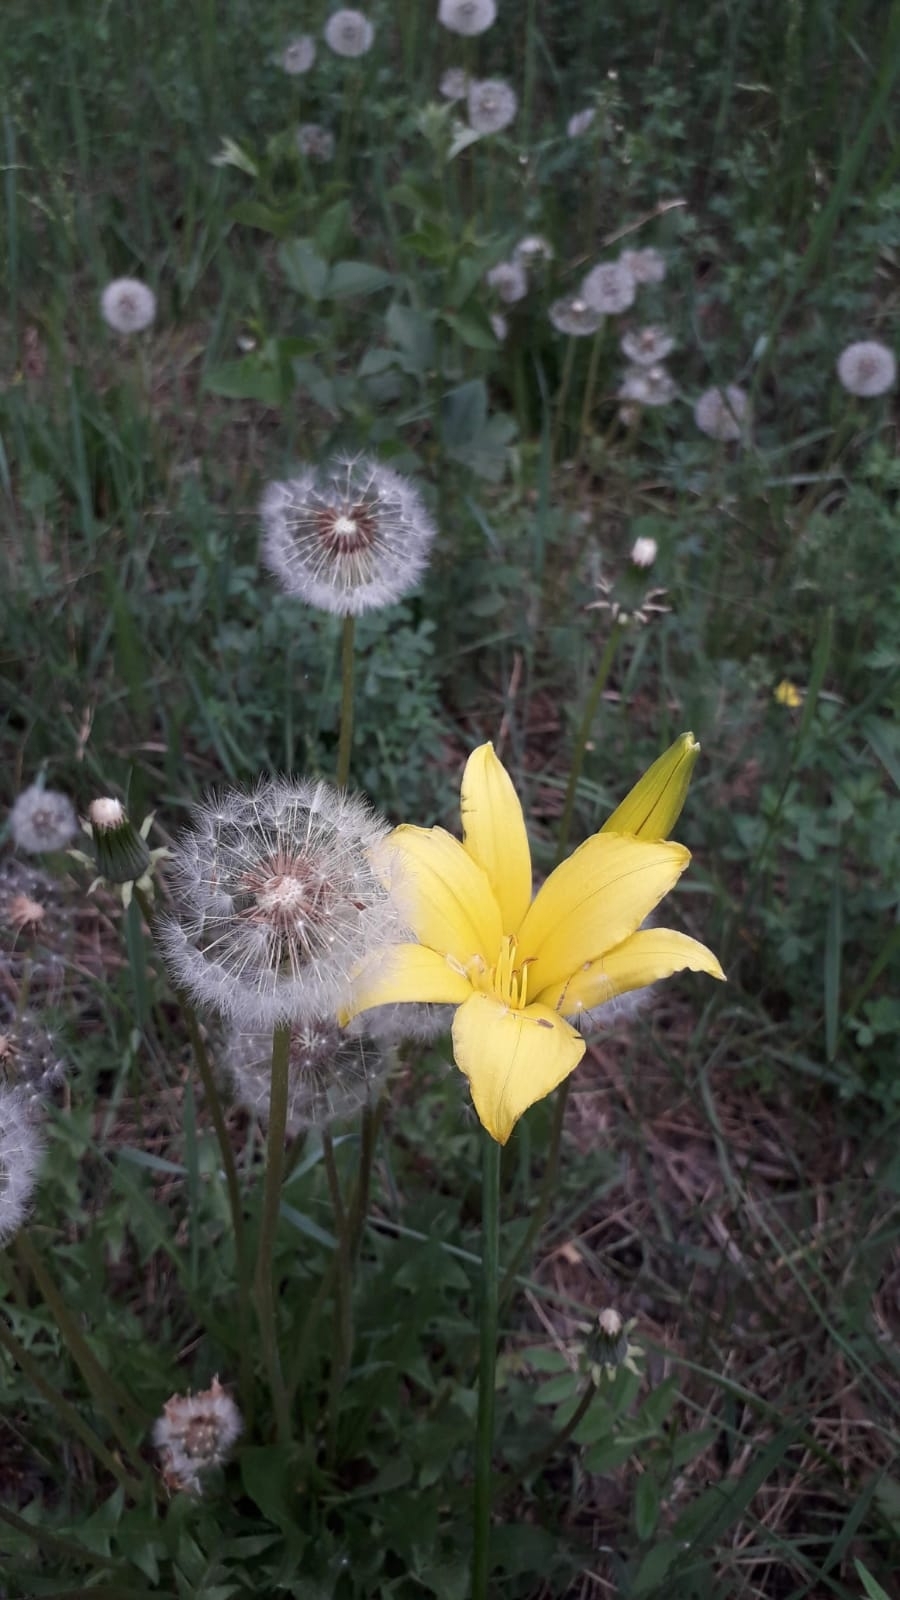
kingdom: Plantae
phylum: Tracheophyta
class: Liliopsida
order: Asparagales
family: Asphodelaceae
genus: Hemerocallis
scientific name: Hemerocallis minor
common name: Small daylily
